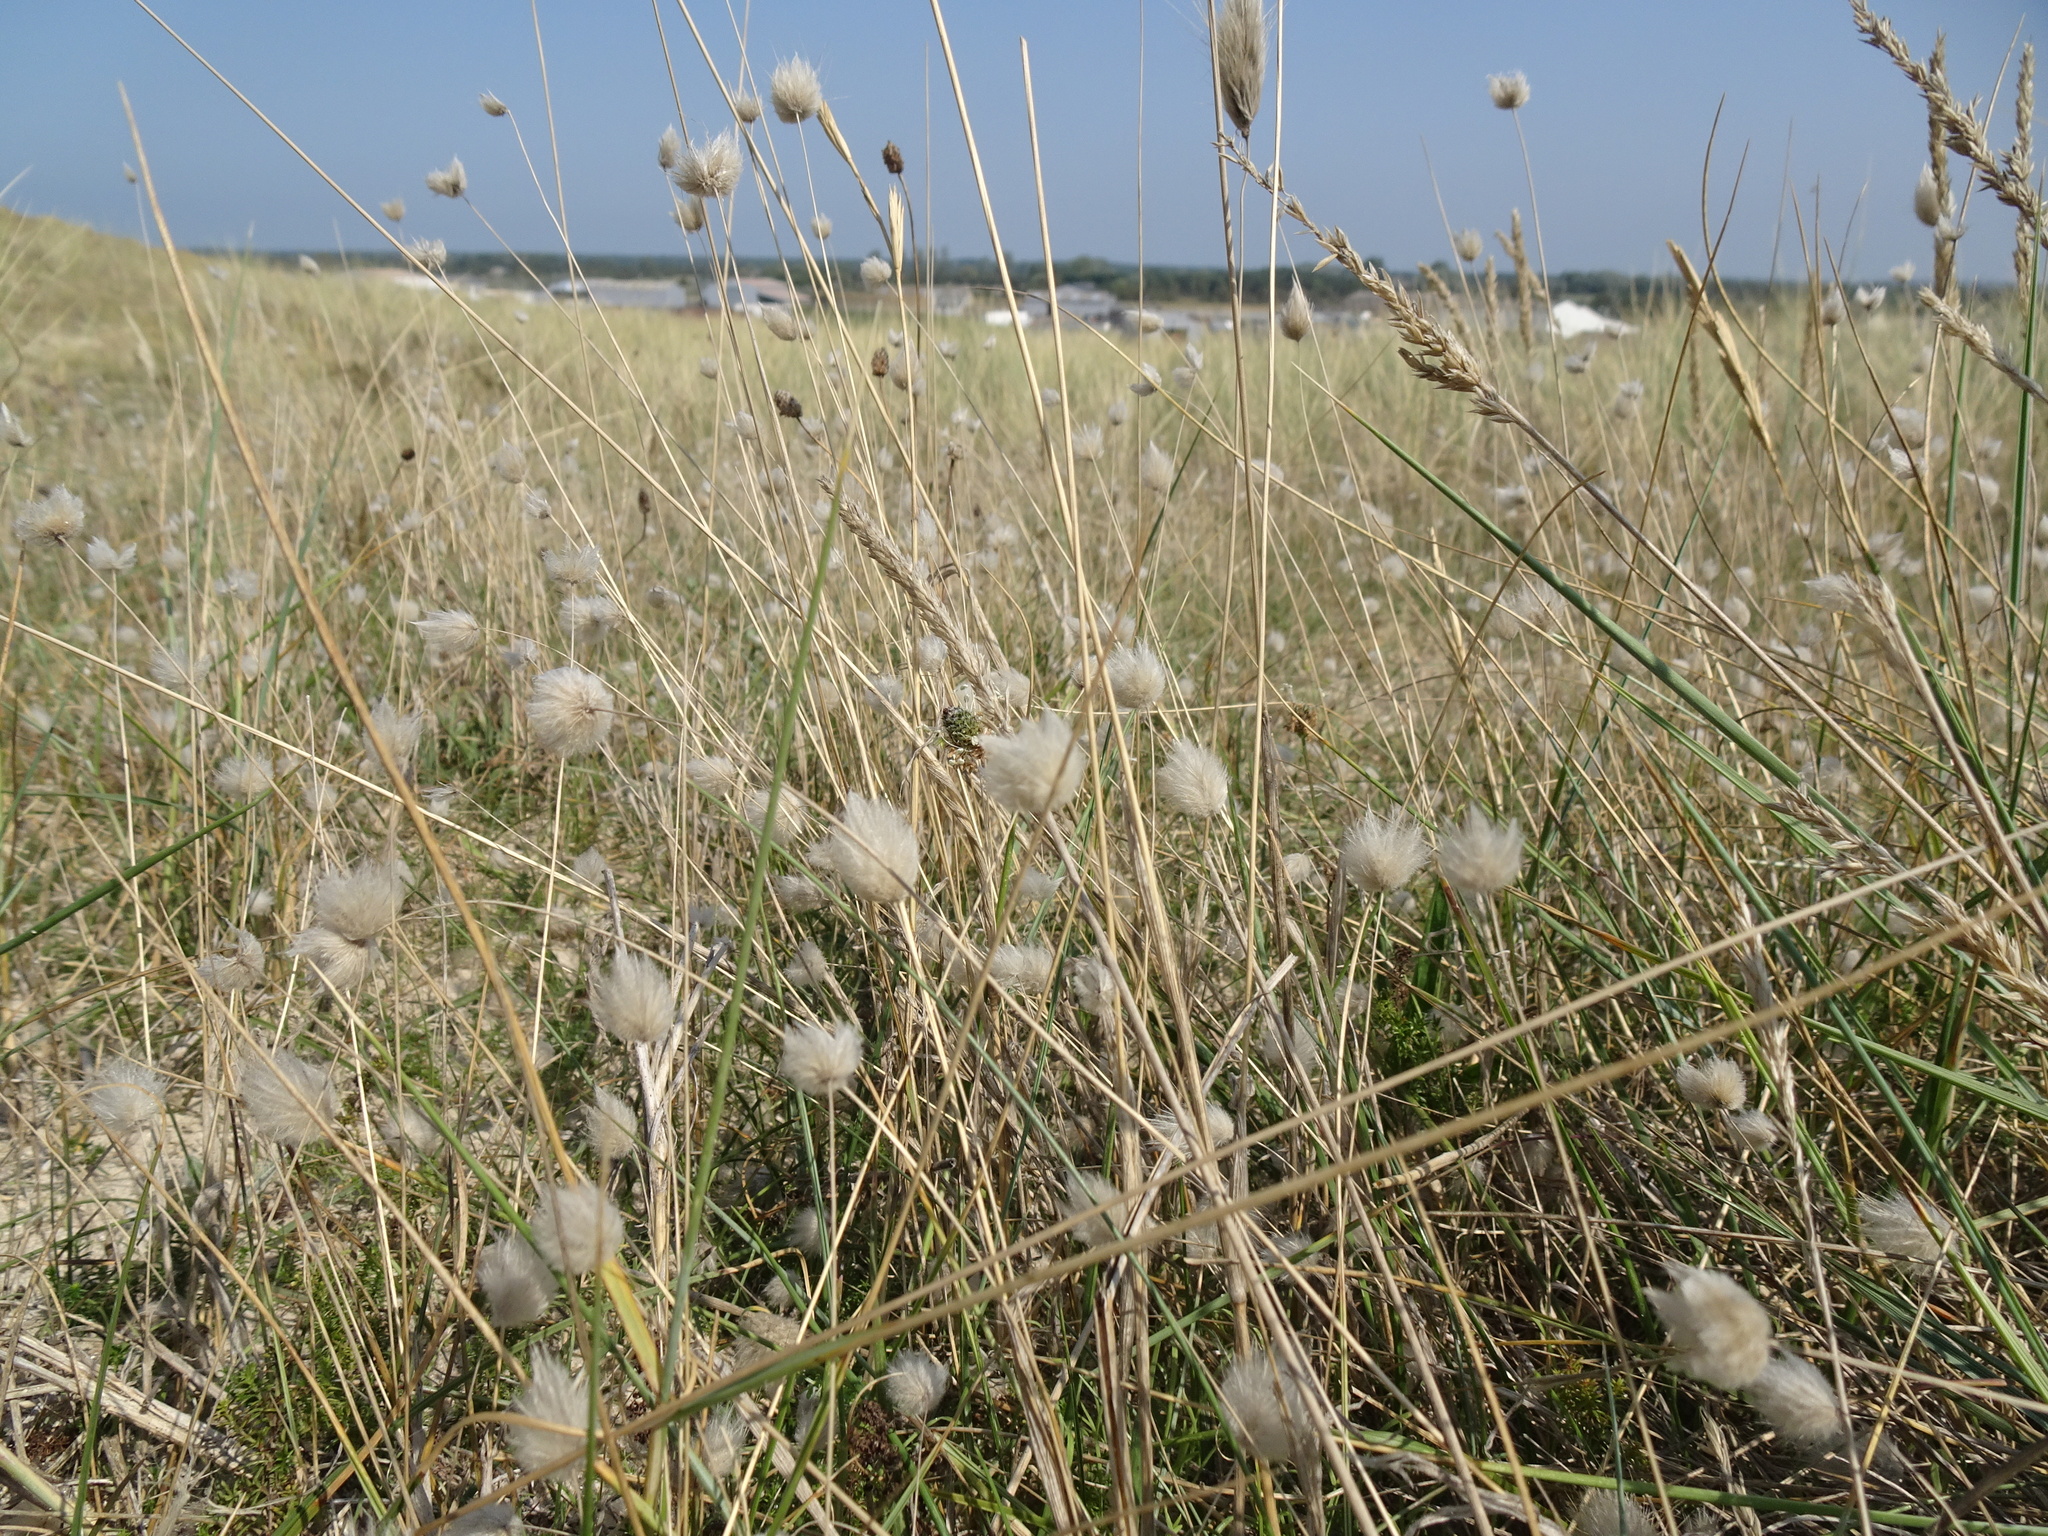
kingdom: Plantae
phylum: Tracheophyta
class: Liliopsida
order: Poales
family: Poaceae
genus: Lagurus
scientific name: Lagurus ovatus
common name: Hare's-tail
